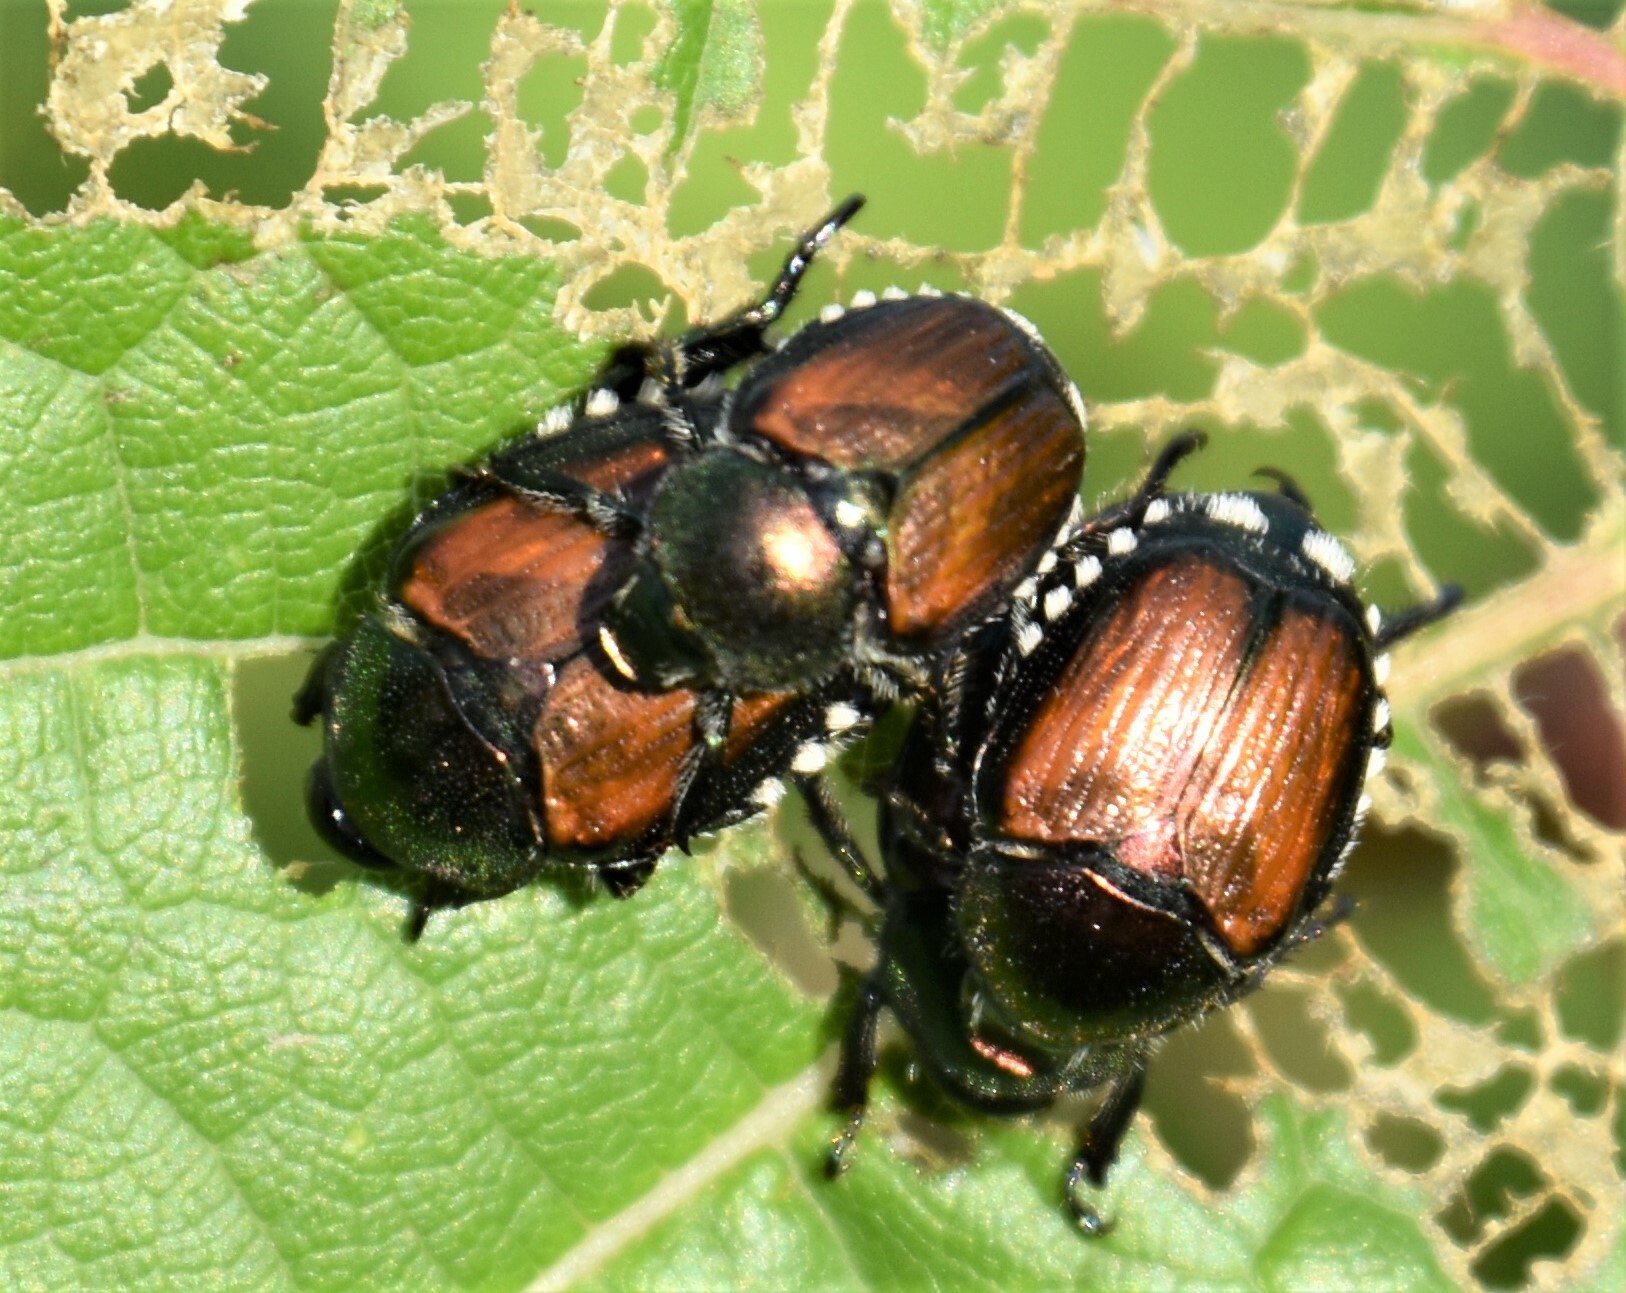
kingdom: Animalia
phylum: Arthropoda
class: Insecta
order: Coleoptera
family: Scarabaeidae
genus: Popillia
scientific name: Popillia japonica
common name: Japanese beetle
